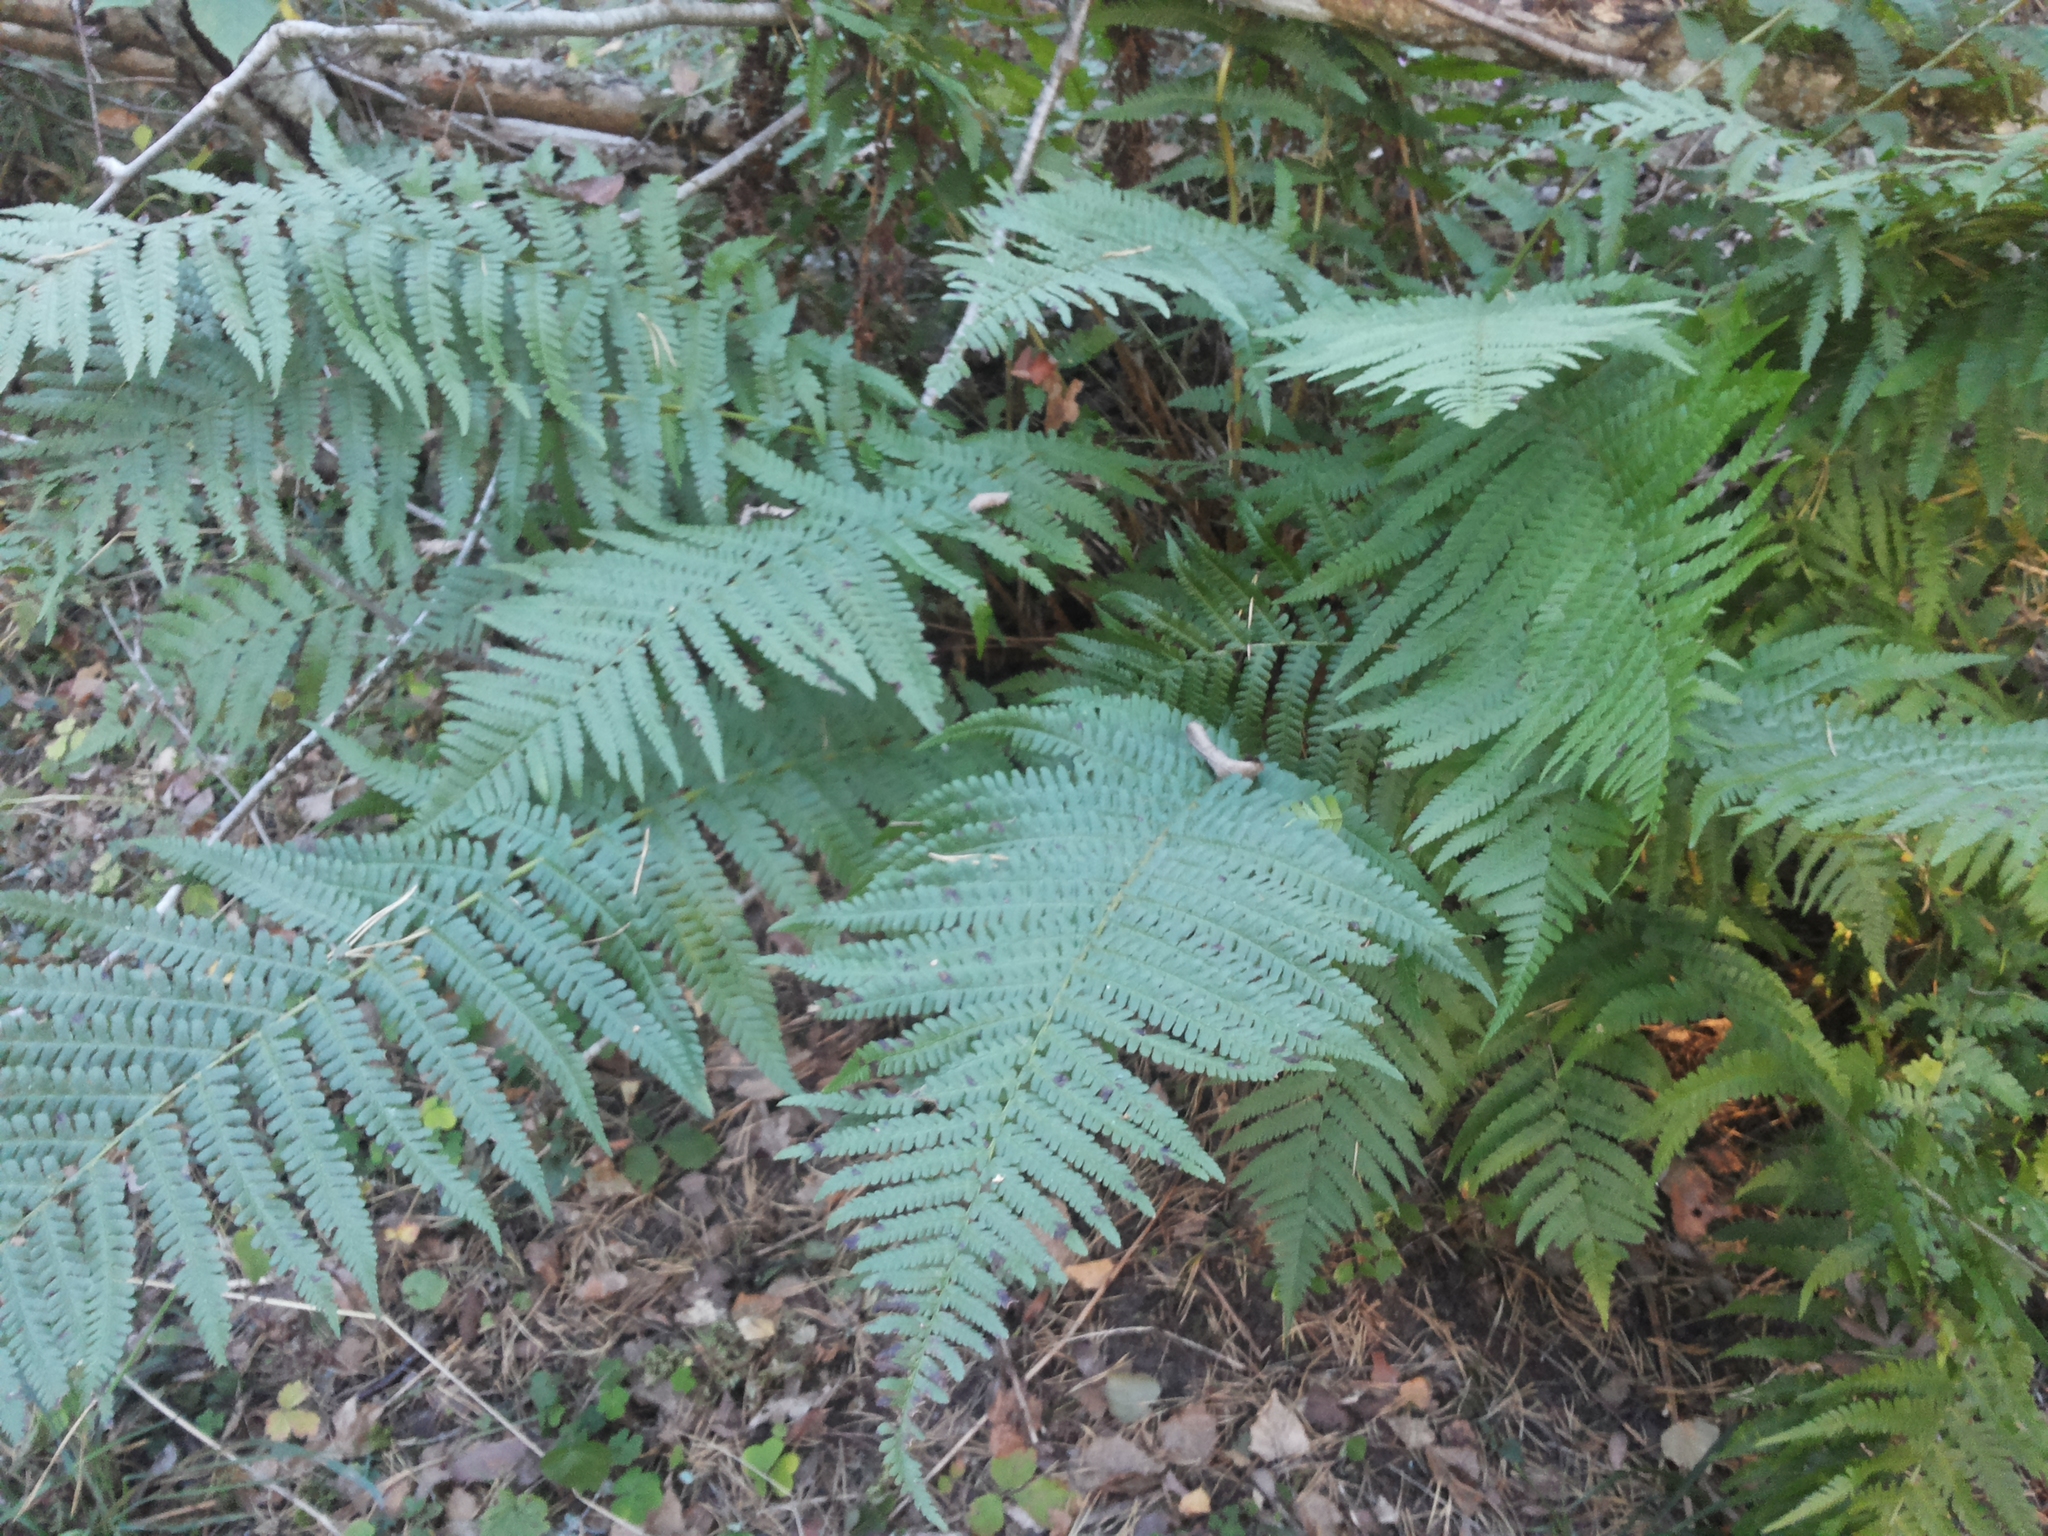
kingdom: Plantae
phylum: Tracheophyta
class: Polypodiopsida
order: Polypodiales
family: Dryopteridaceae
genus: Dryopteris
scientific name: Dryopteris filix-mas
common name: Male fern
